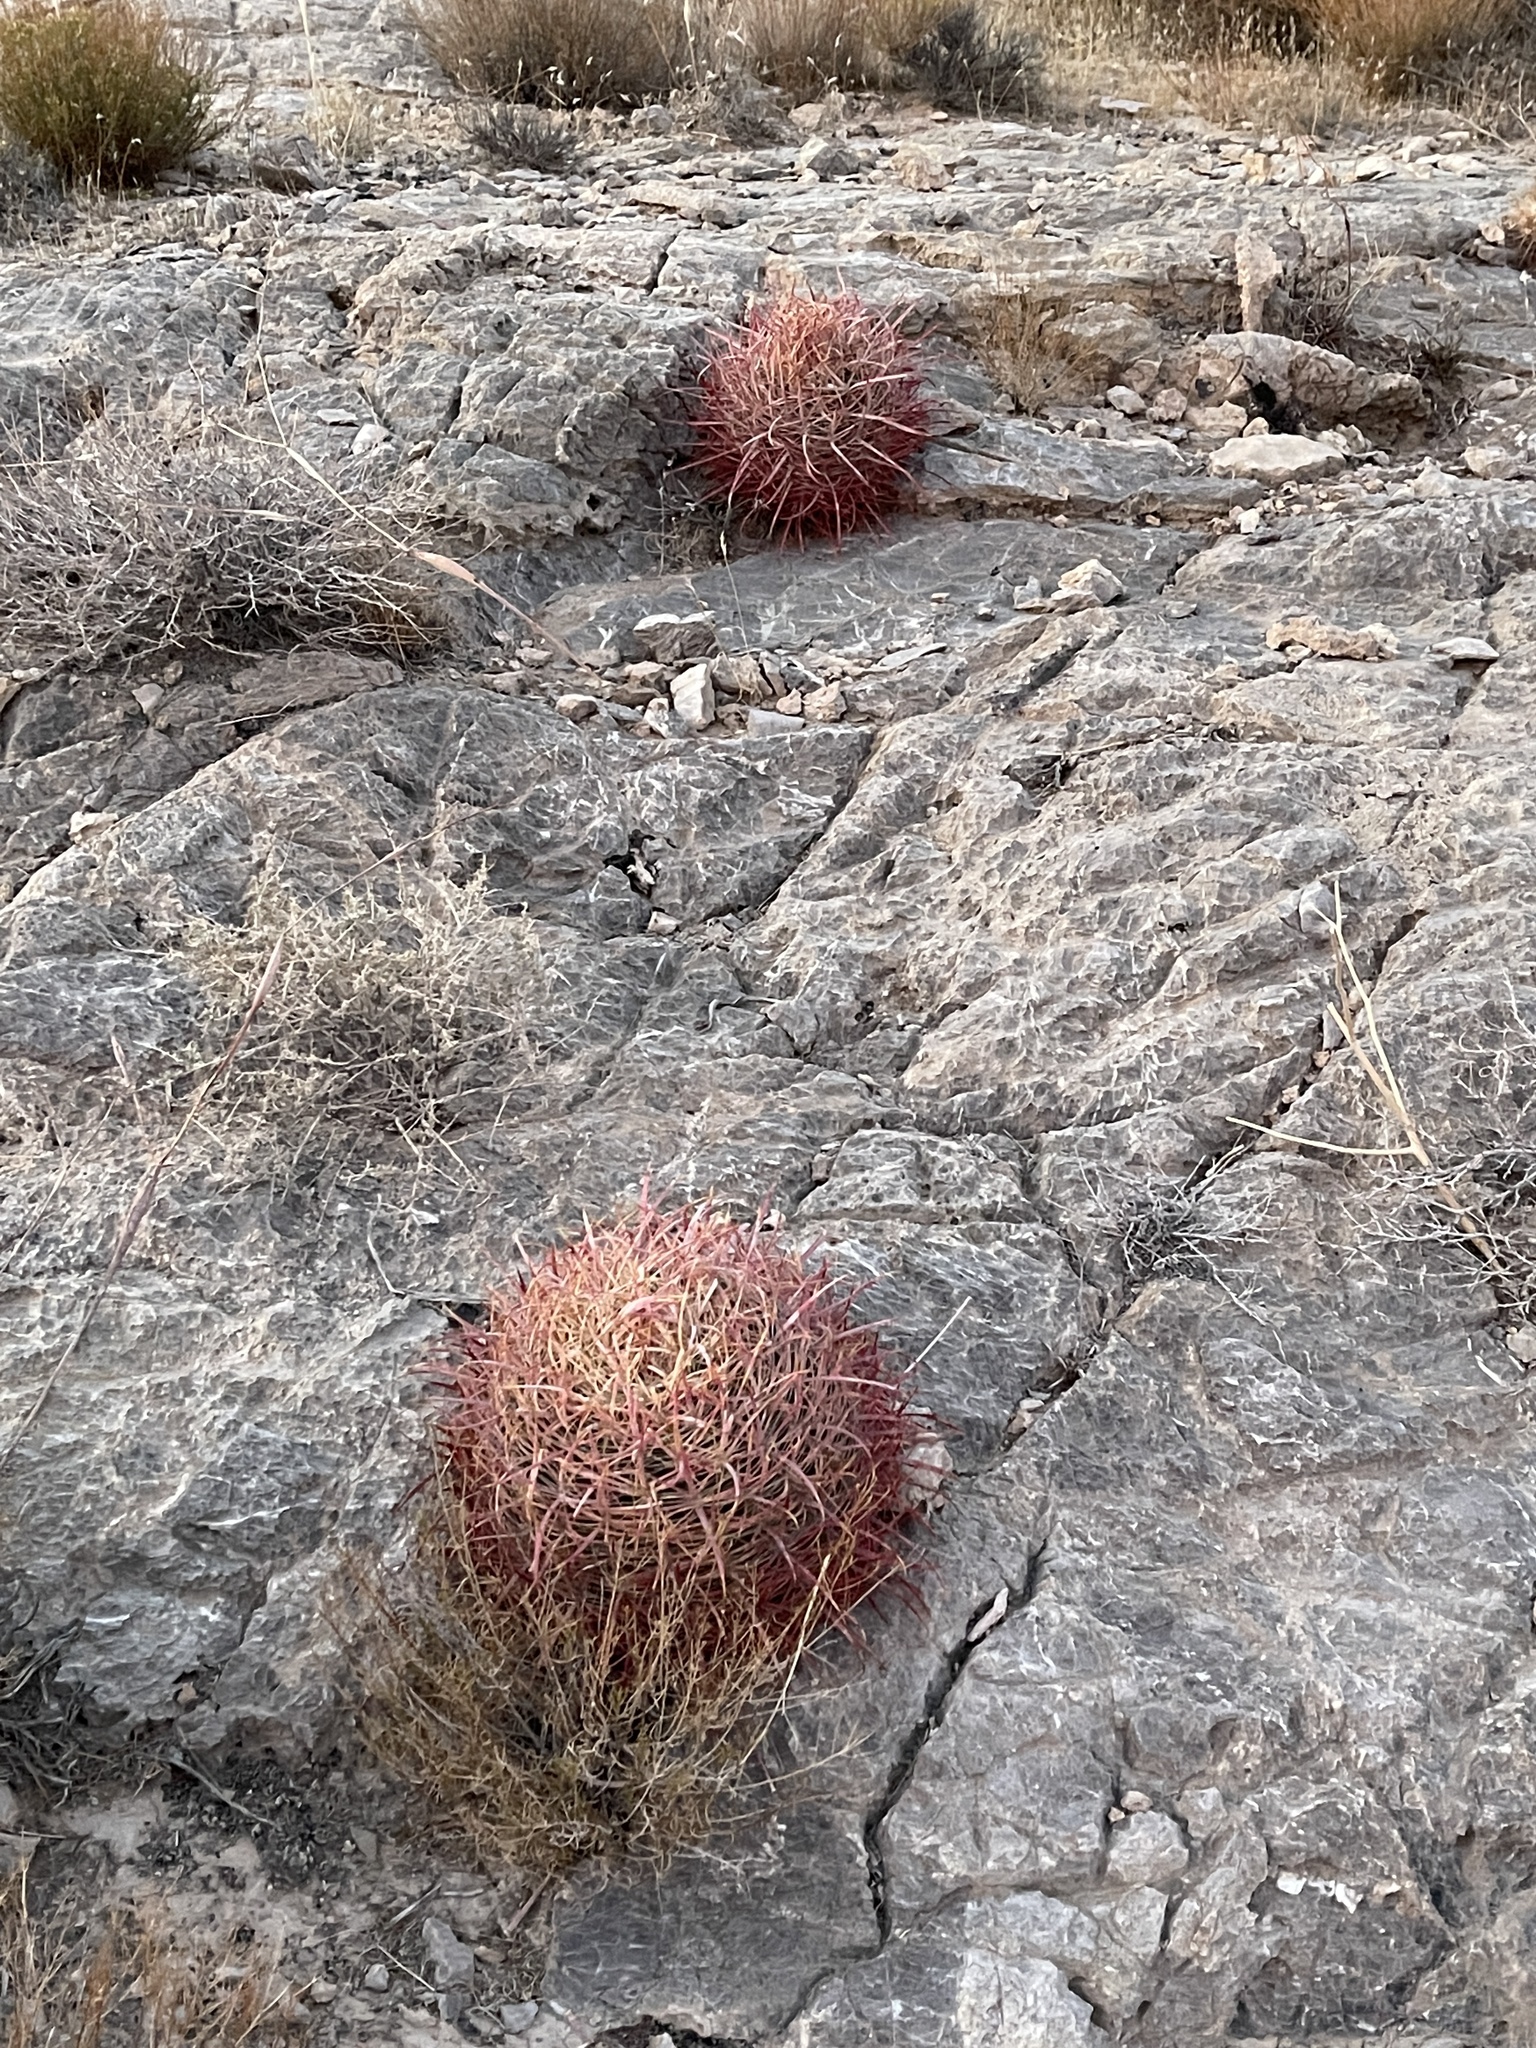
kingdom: Plantae
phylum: Tracheophyta
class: Magnoliopsida
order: Caryophyllales
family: Cactaceae
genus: Ferocactus
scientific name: Ferocactus cylindraceus
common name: California barrel cactus
